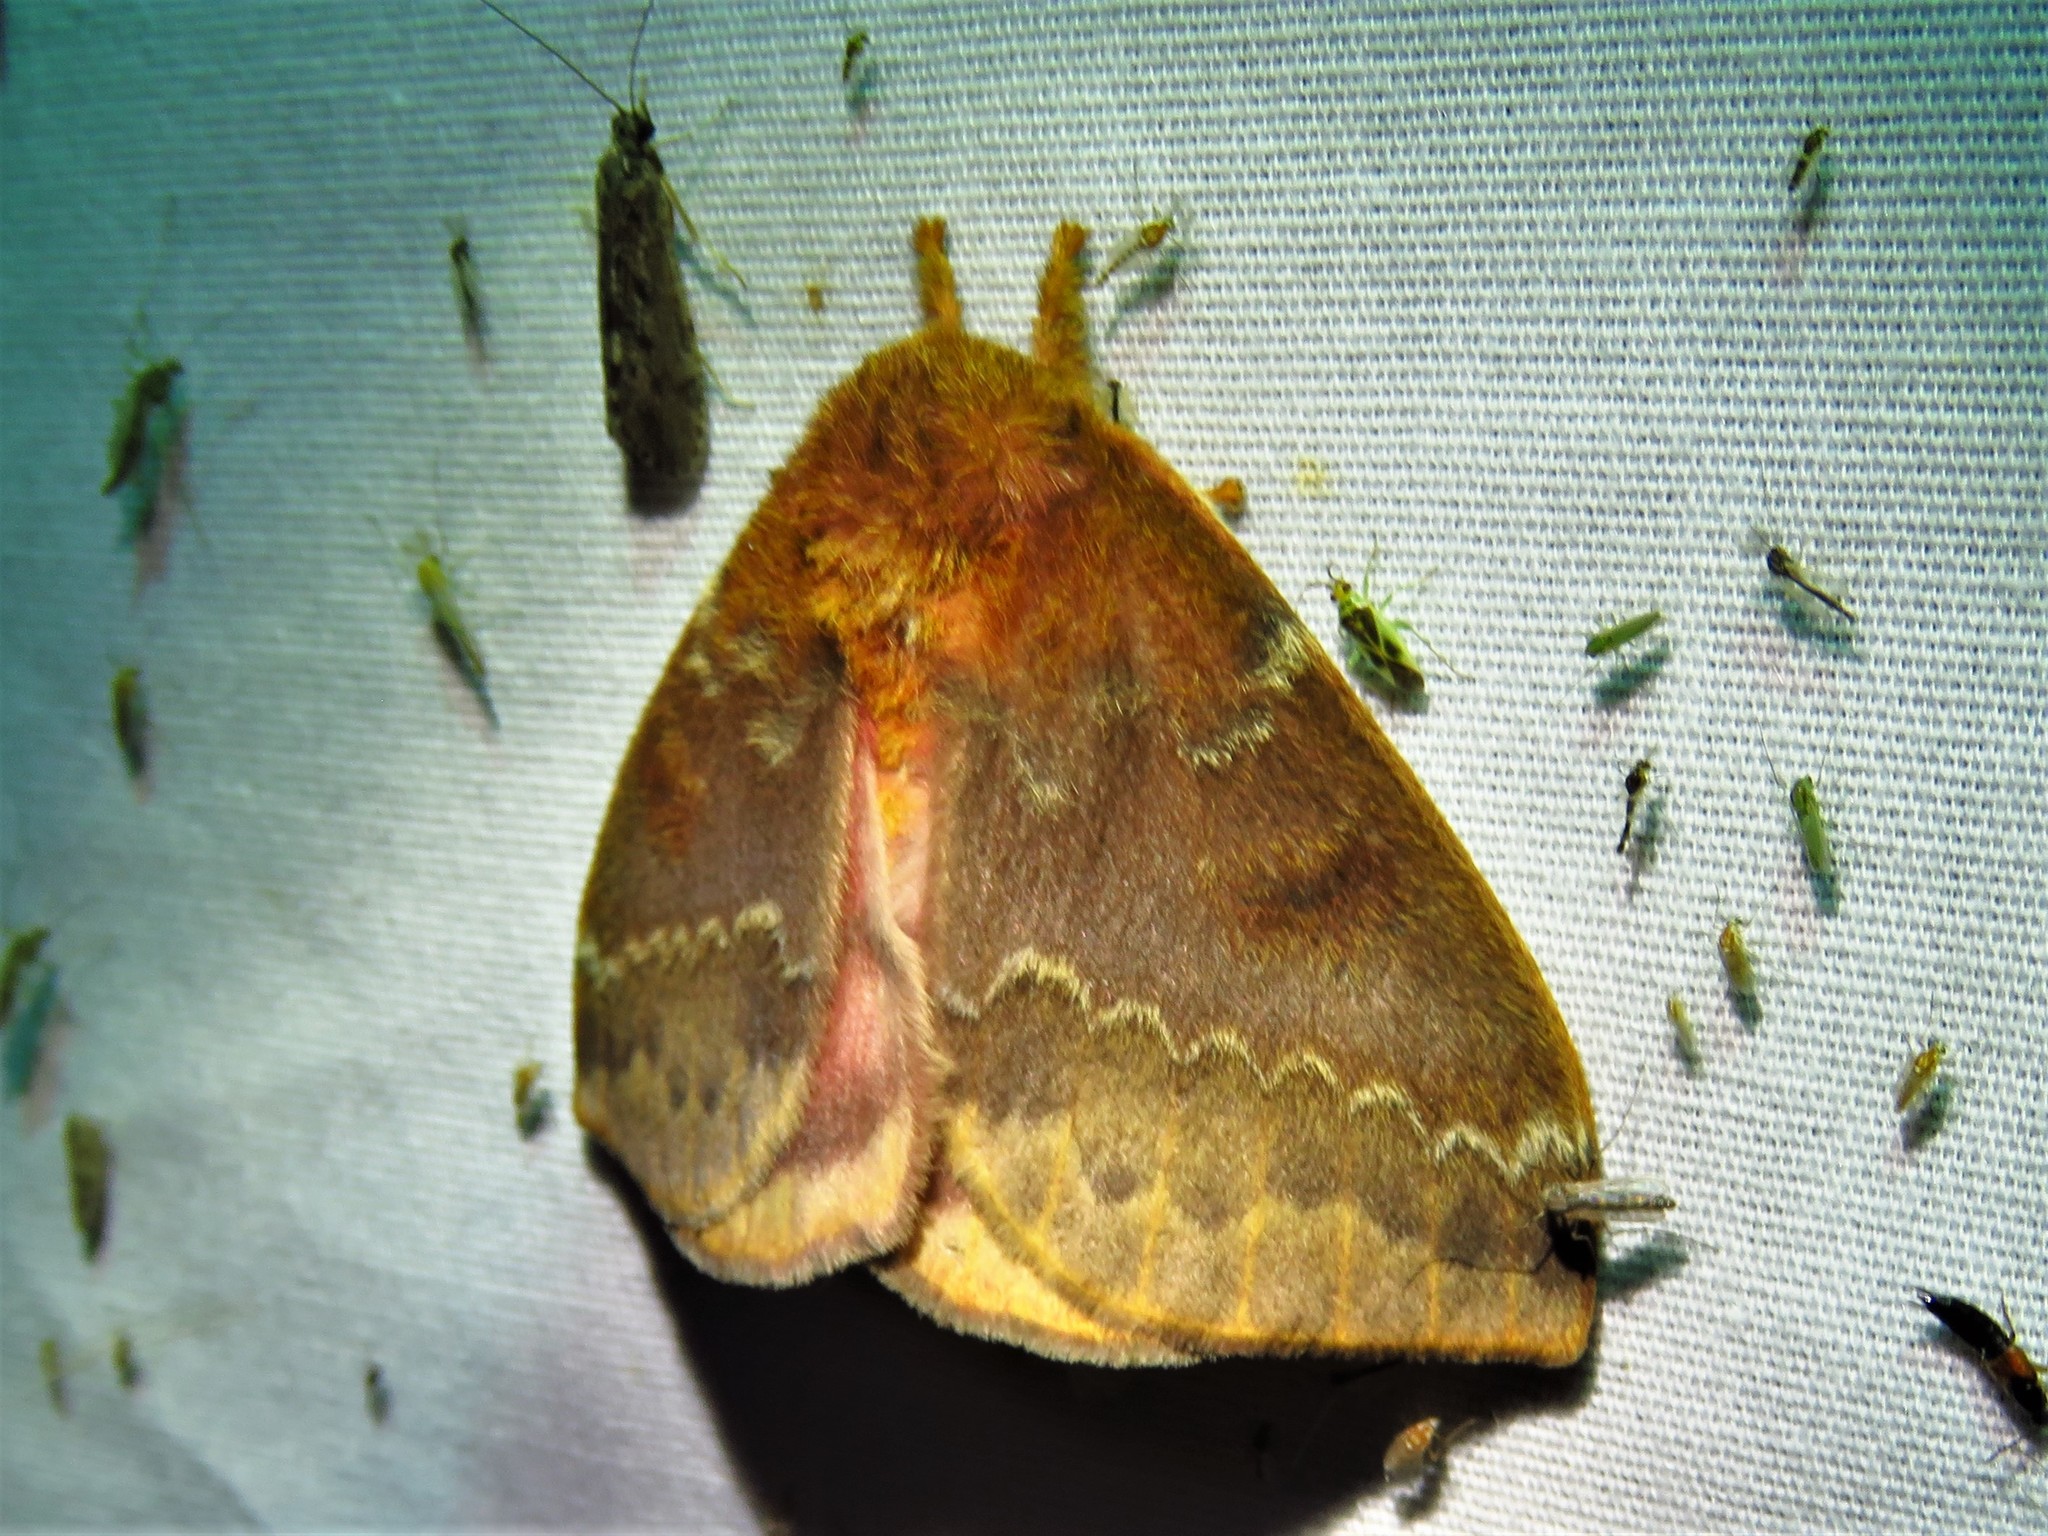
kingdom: Animalia
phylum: Arthropoda
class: Insecta
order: Lepidoptera
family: Saturniidae
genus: Automeris
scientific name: Automeris io
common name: Io moth
